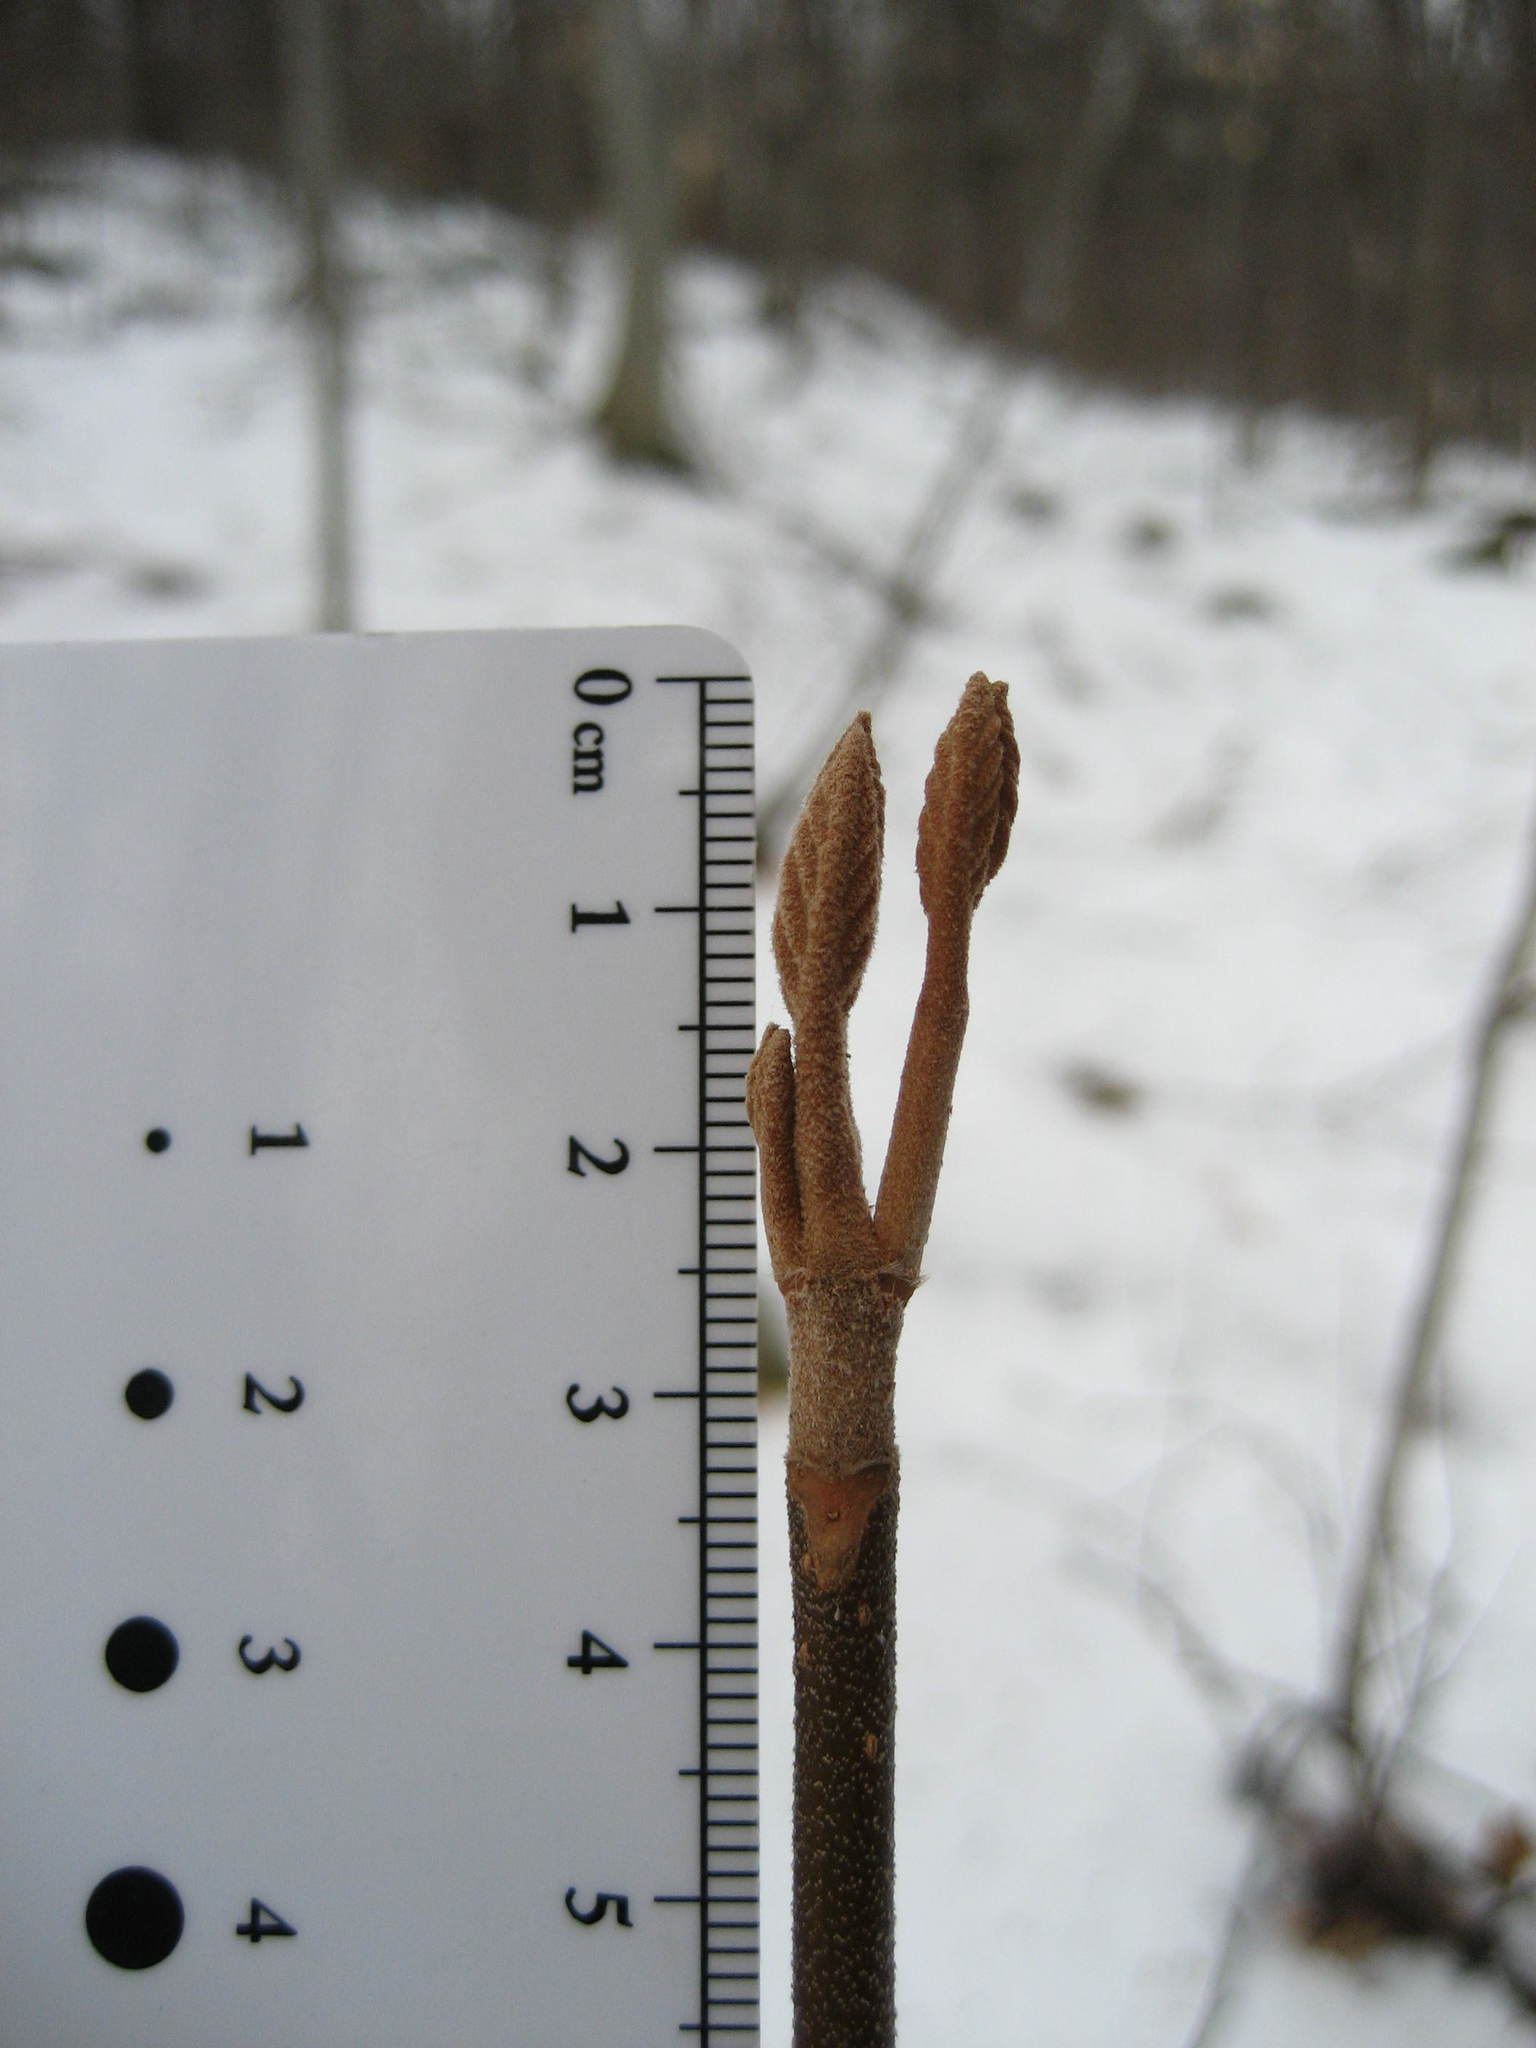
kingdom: Plantae
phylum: Tracheophyta
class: Magnoliopsida
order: Dipsacales
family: Viburnaceae
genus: Viburnum
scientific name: Viburnum lantanoides
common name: Hobblebush
